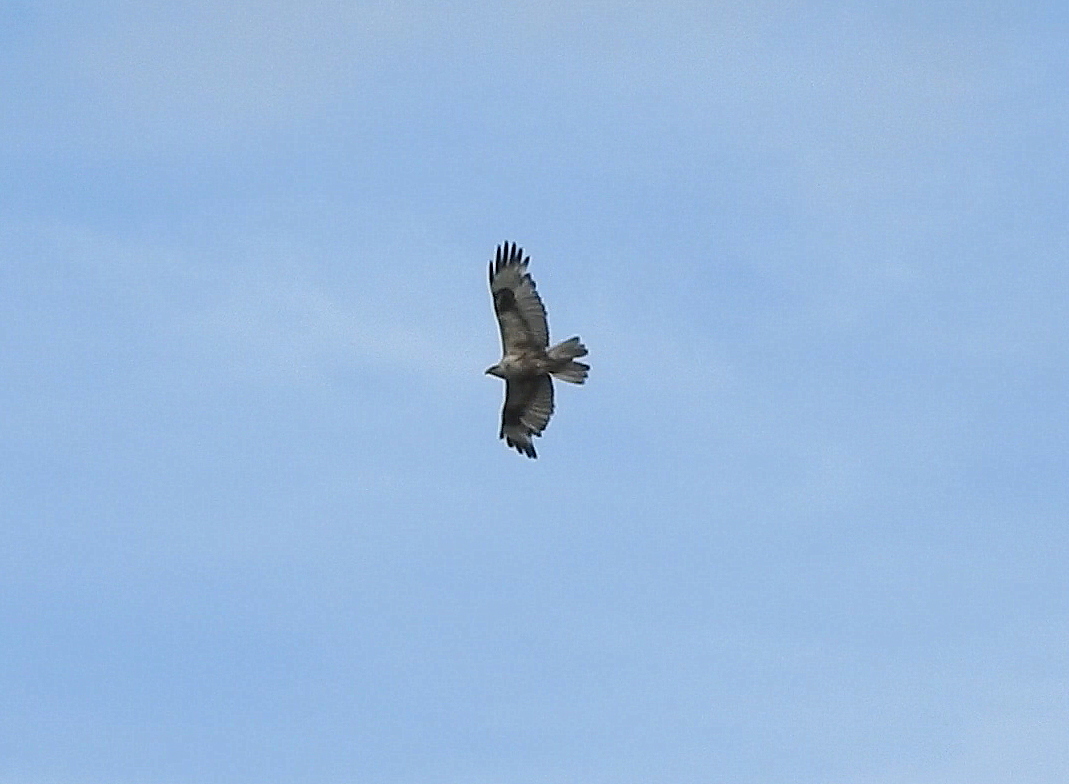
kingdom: Animalia
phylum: Chordata
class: Aves
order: Accipitriformes
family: Accipitridae
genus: Buteo
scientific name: Buteo hemilasius
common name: Upland buzzard
